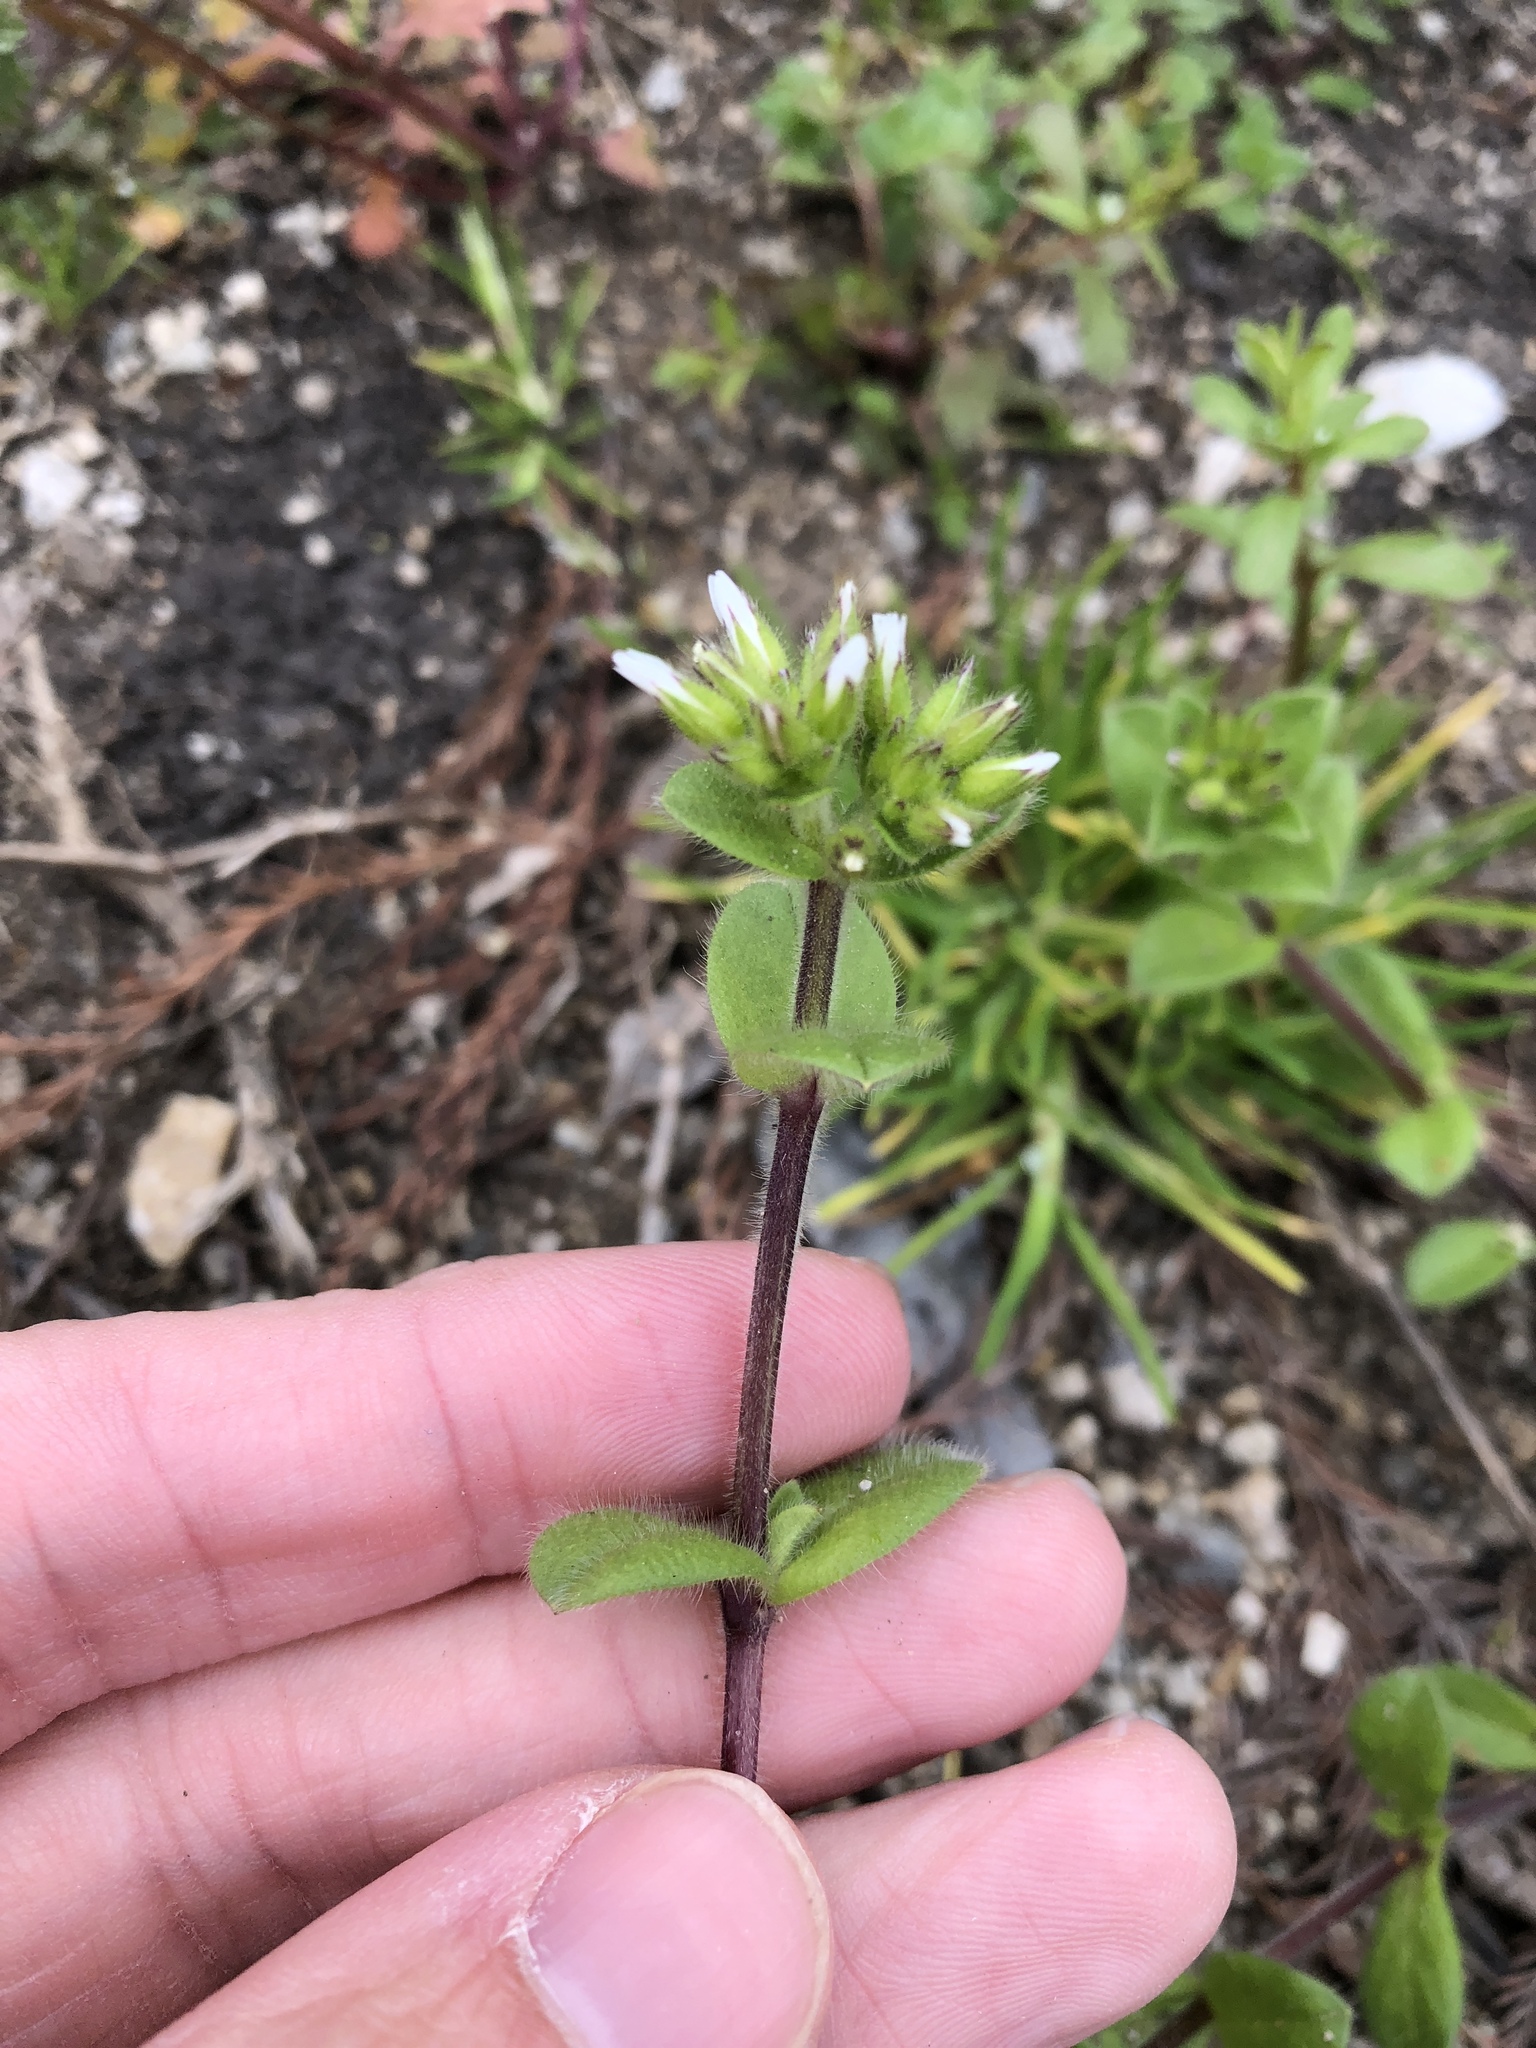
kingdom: Plantae
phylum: Tracheophyta
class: Magnoliopsida
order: Caryophyllales
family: Caryophyllaceae
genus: Cerastium
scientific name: Cerastium glomeratum
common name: Sticky chickweed
